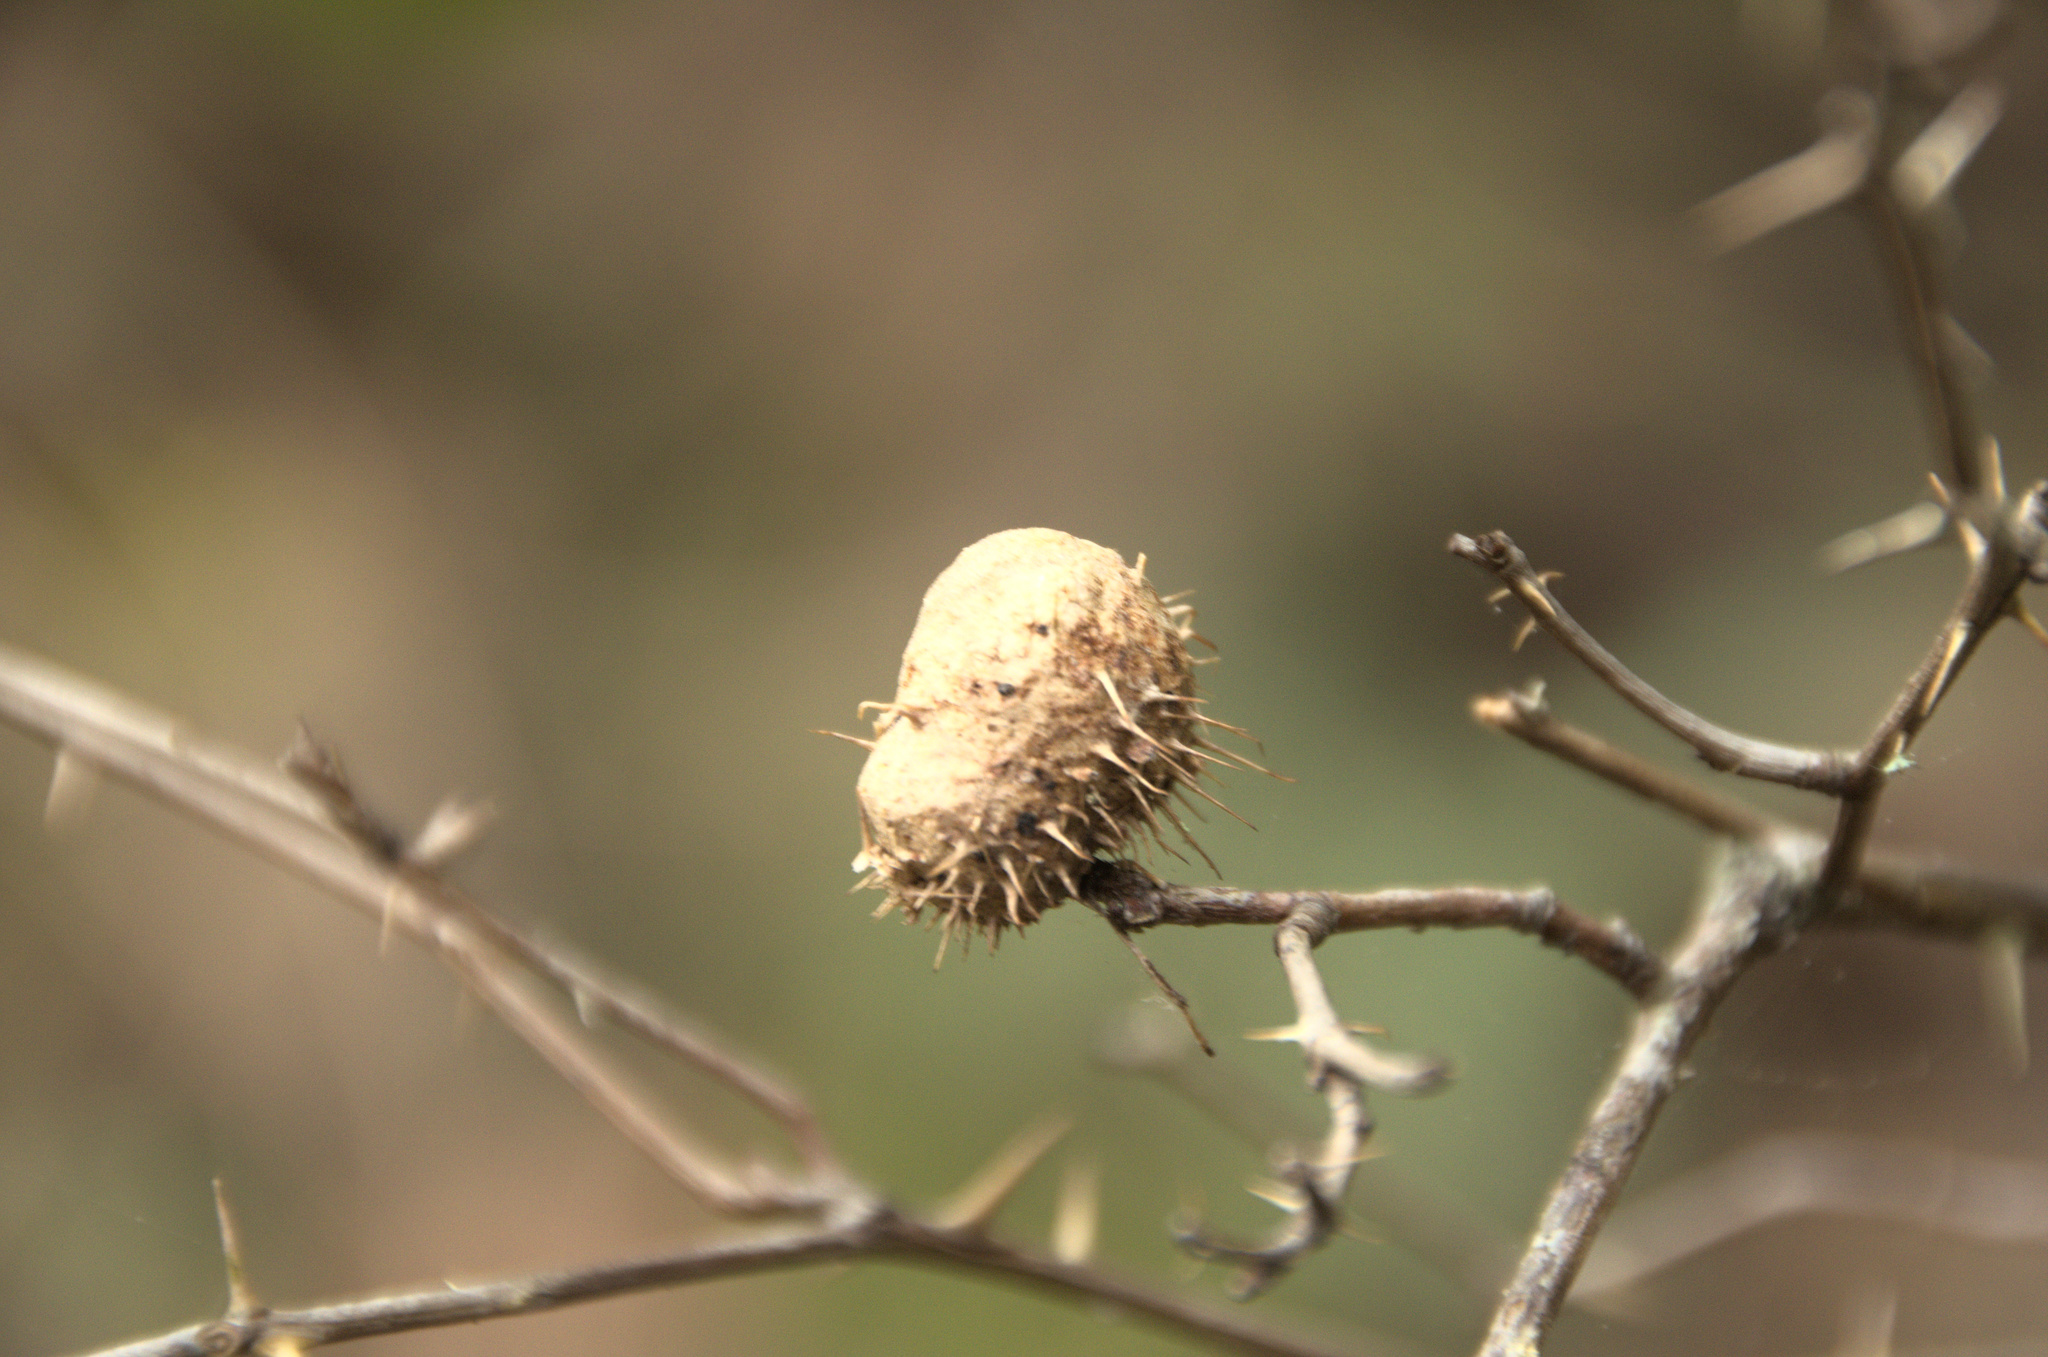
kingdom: Animalia
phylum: Arthropoda
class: Insecta
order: Hymenoptera
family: Cynipidae
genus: Diplolepis
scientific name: Diplolepis mayri
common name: Gall wasp
